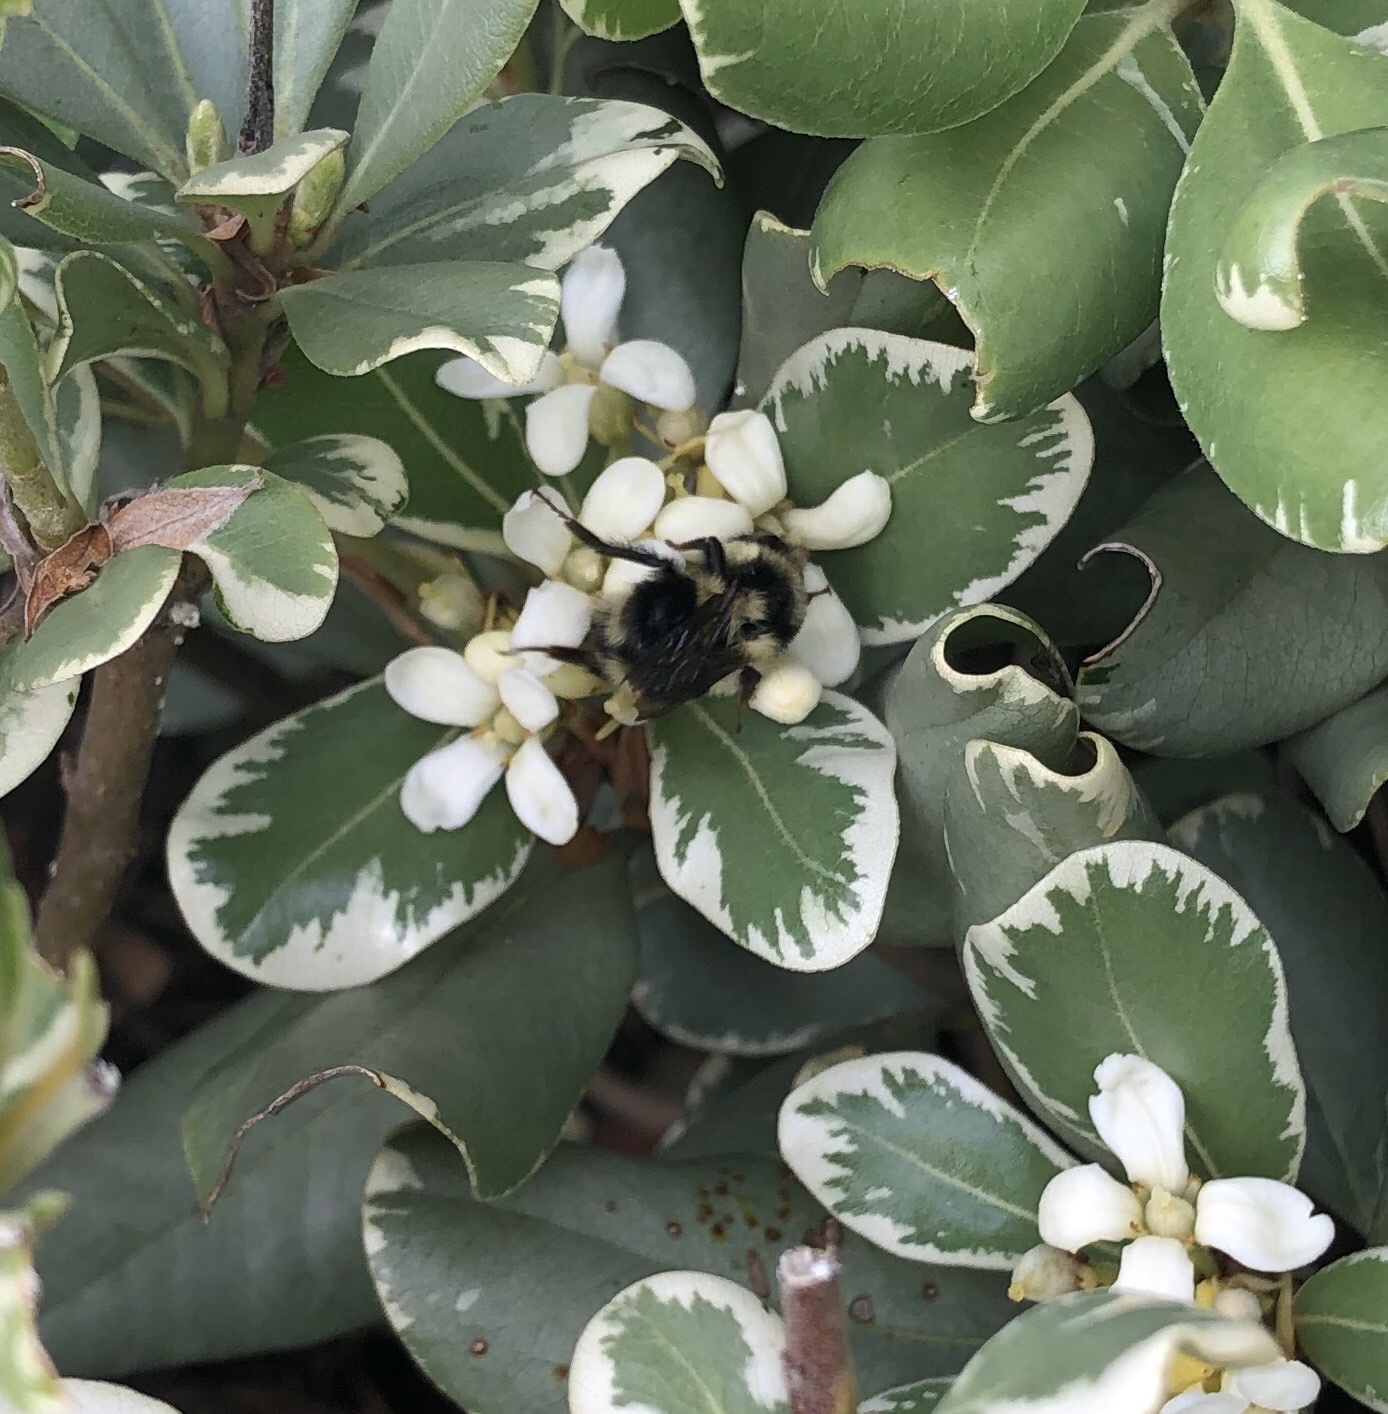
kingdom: Animalia
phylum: Arthropoda
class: Insecta
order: Hymenoptera
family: Apidae
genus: Bombus
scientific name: Bombus melanopygus
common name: Black tail bumble bee
